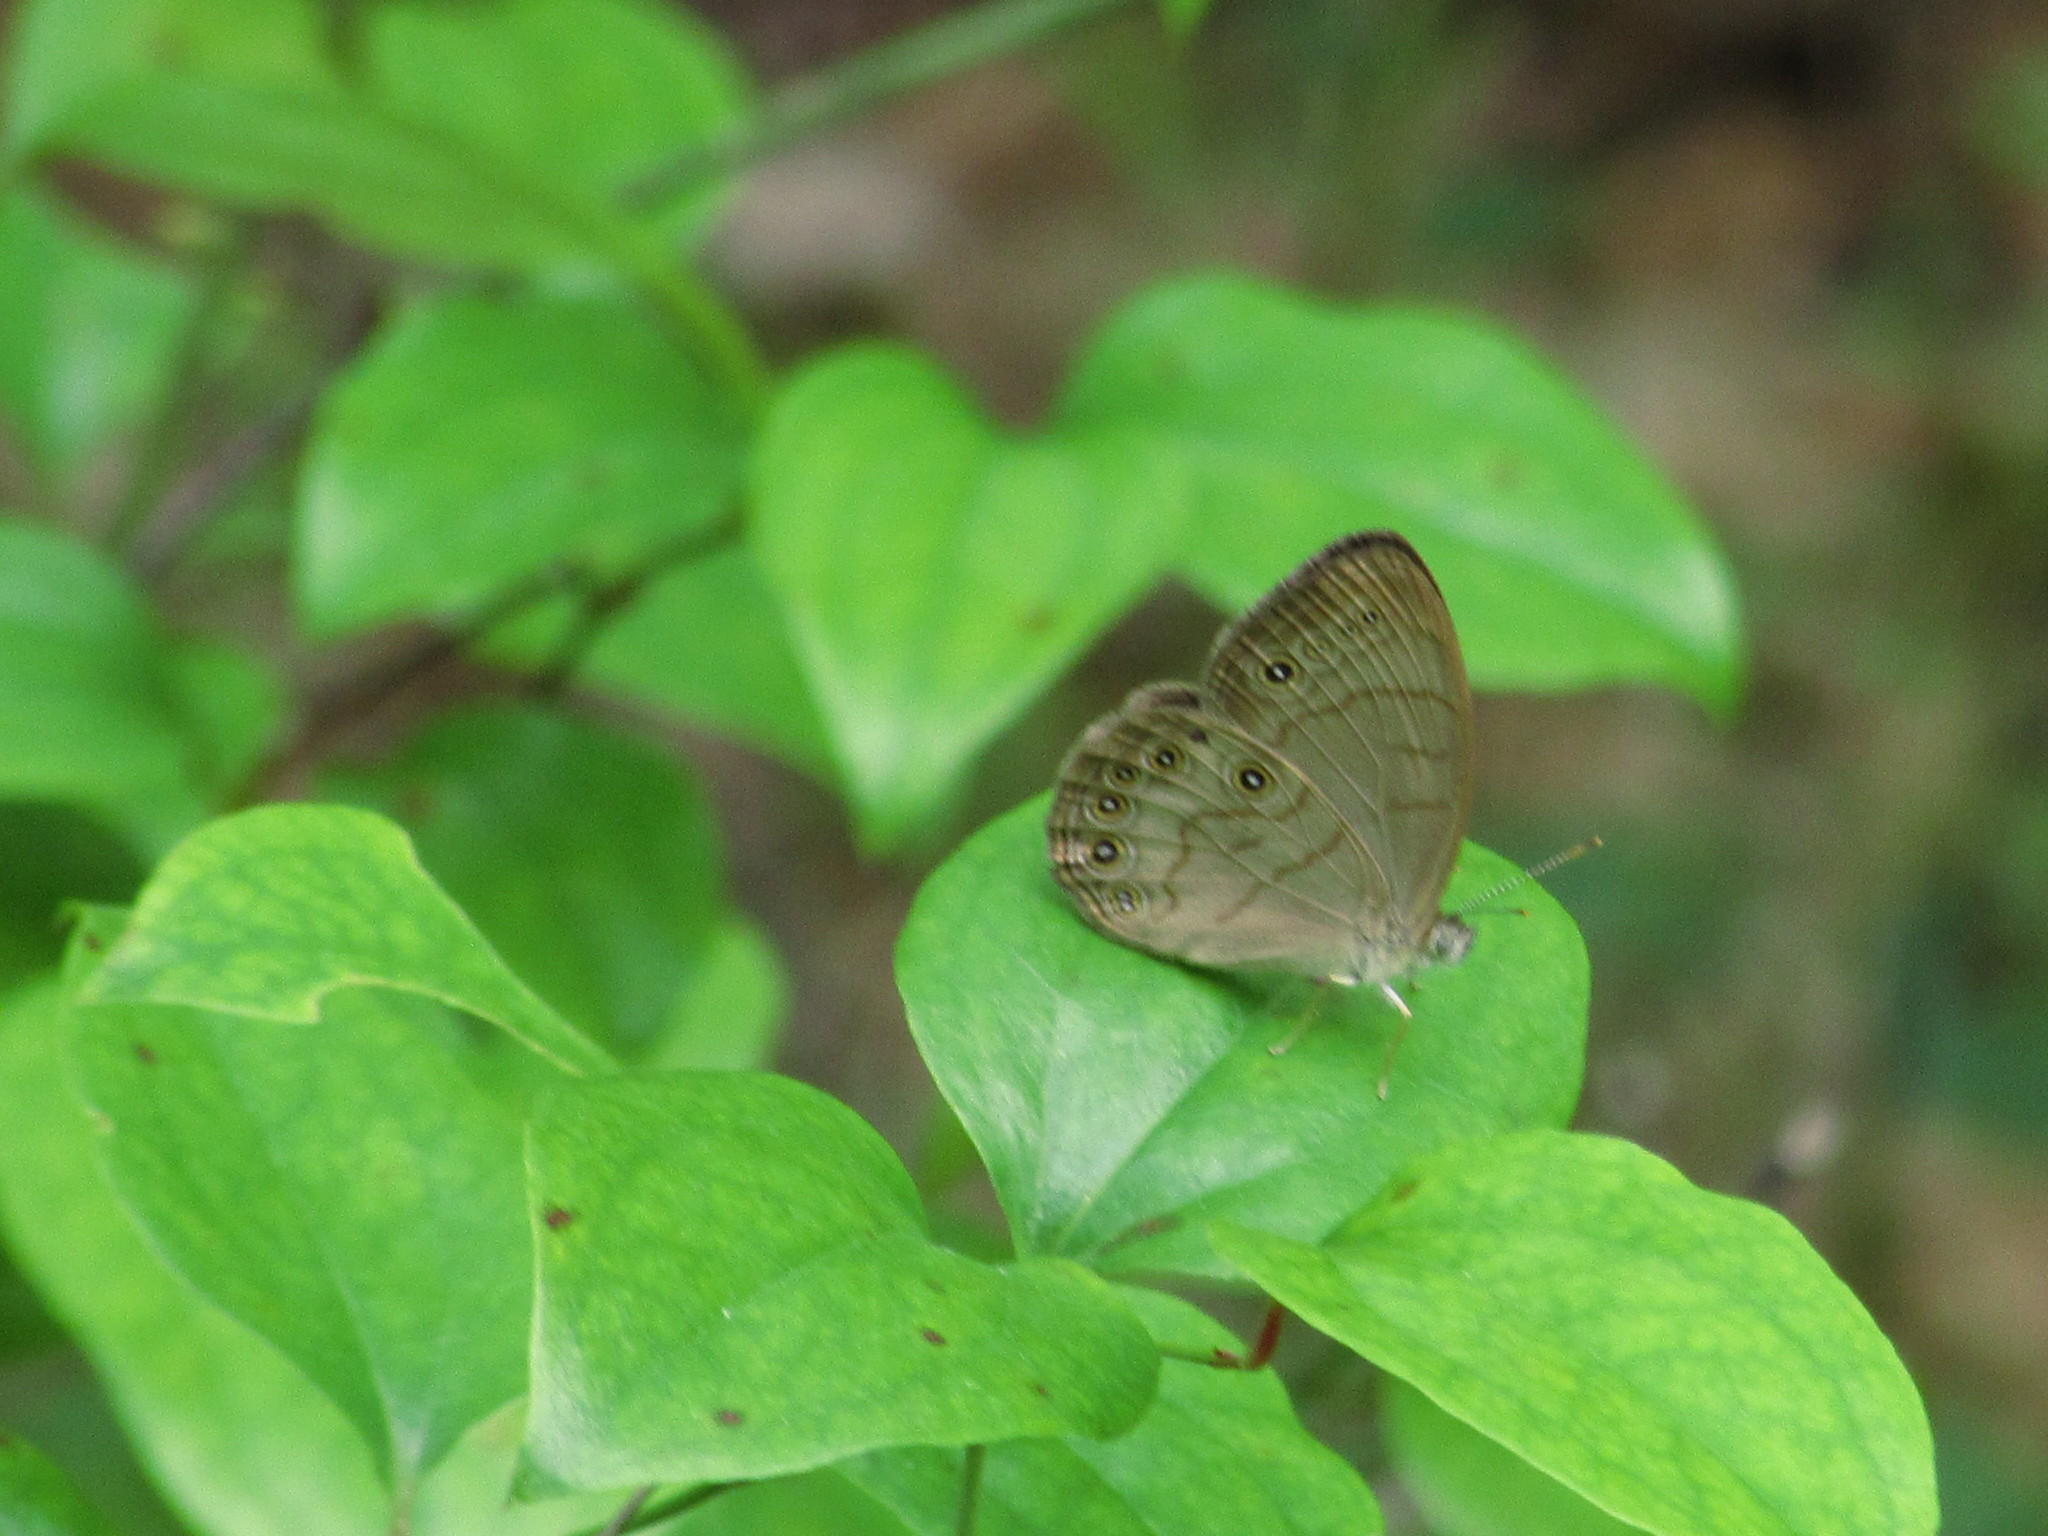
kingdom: Animalia
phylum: Arthropoda
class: Insecta
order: Lepidoptera
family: Nymphalidae
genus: Lethe
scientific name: Lethe eurydice
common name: Eyed brown
